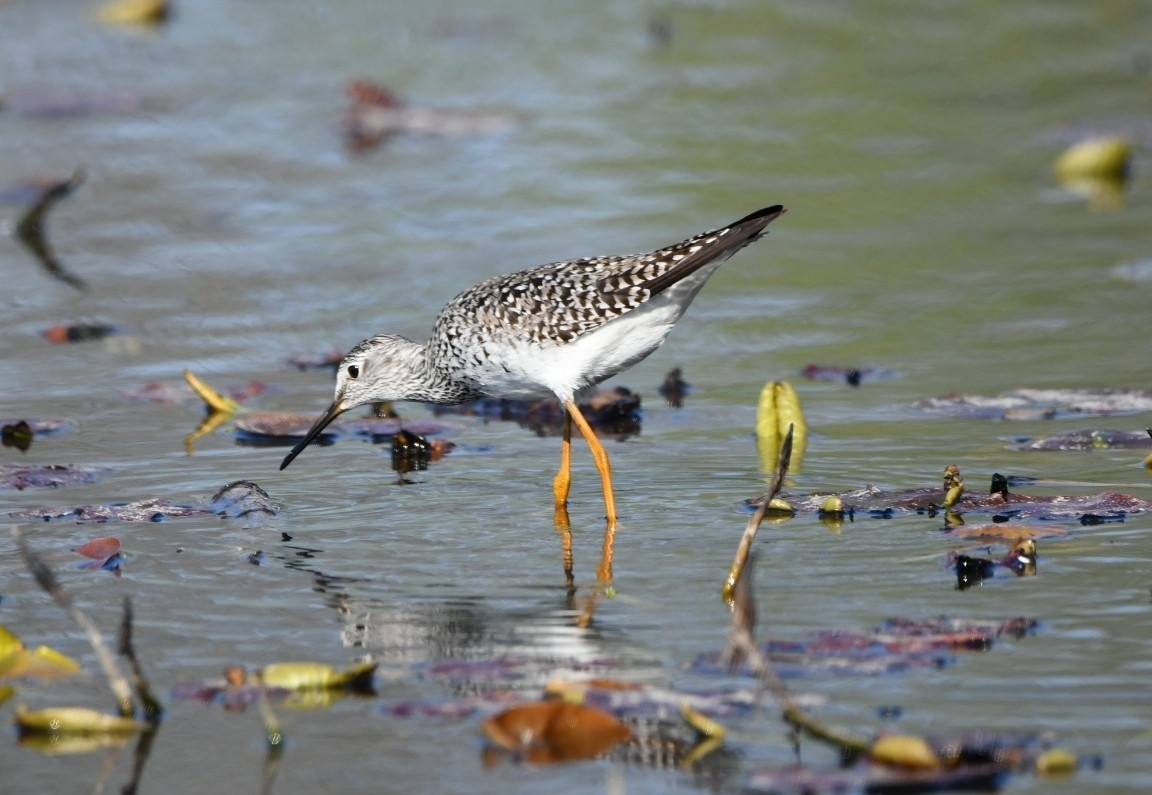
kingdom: Animalia
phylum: Chordata
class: Aves
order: Charadriiformes
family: Scolopacidae
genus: Tringa
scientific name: Tringa melanoleuca
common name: Greater yellowlegs
